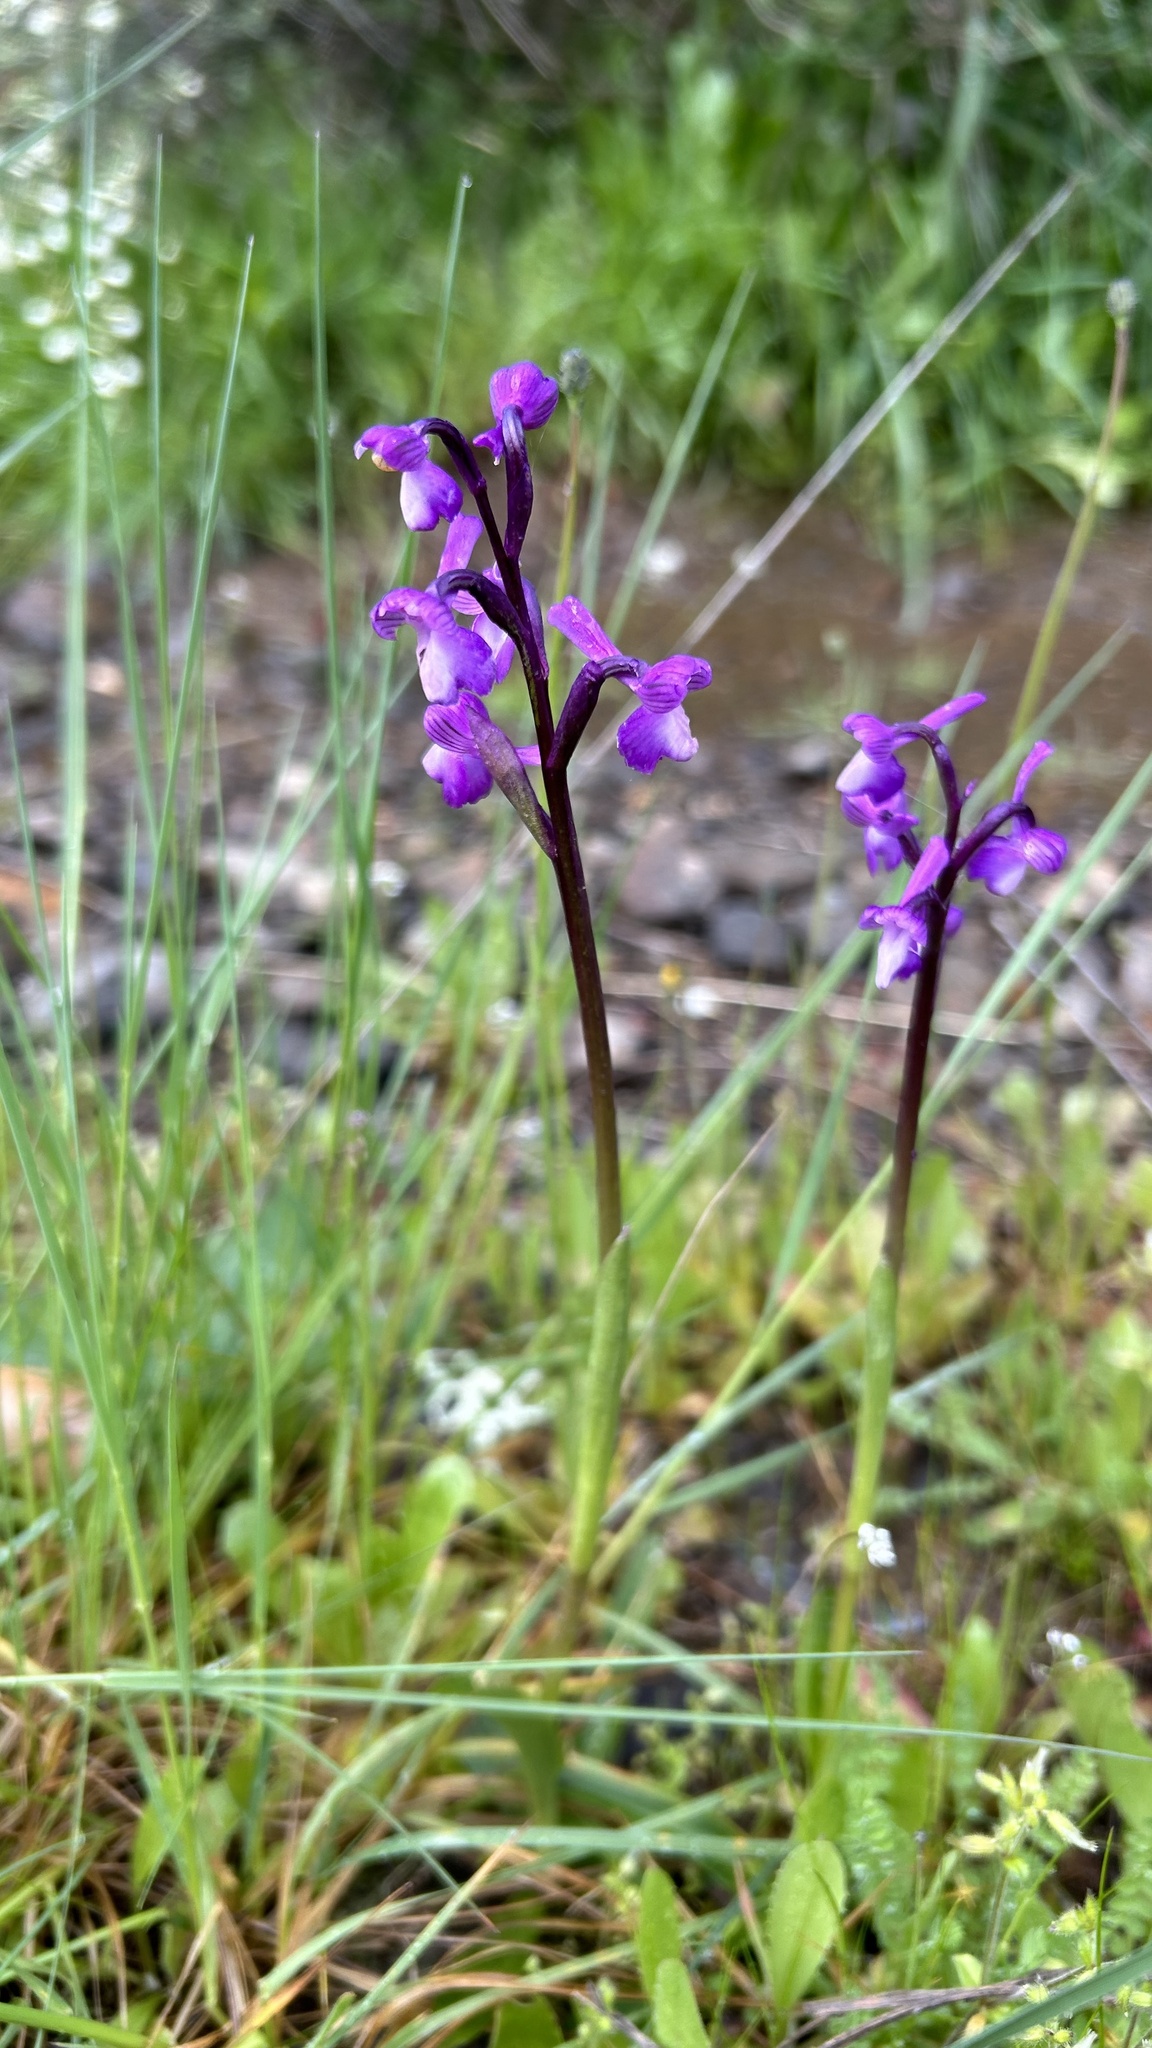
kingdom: Plantae
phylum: Tracheophyta
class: Liliopsida
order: Asparagales
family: Orchidaceae
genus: Anacamptis
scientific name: Anacamptis morio
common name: Green-winged orchid
